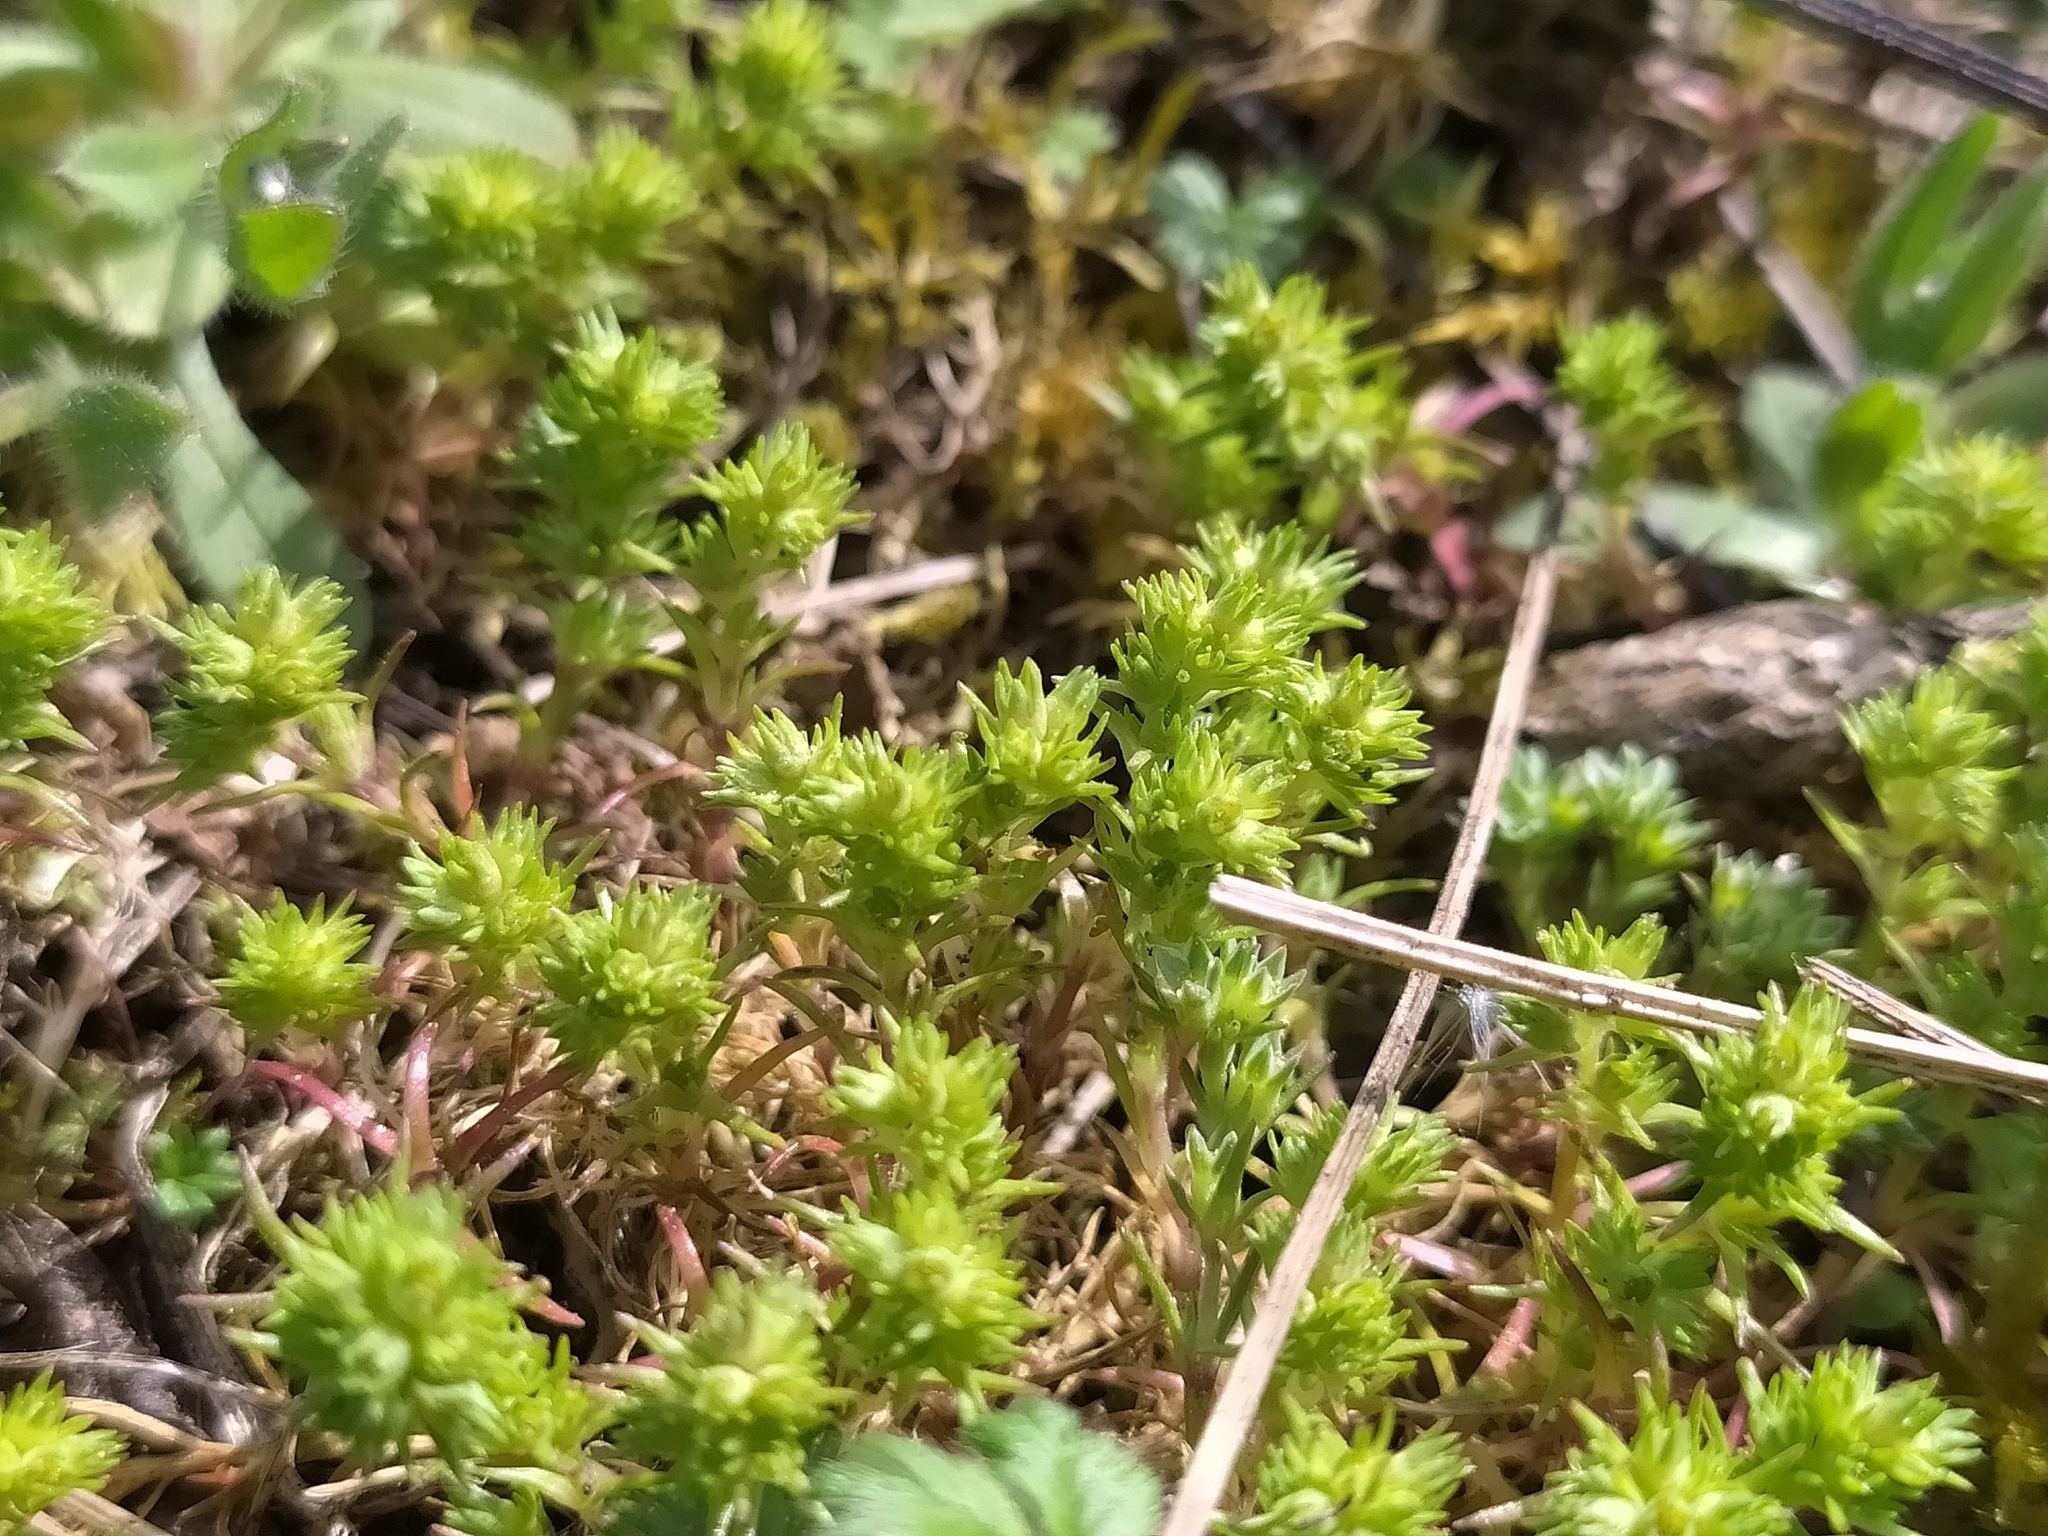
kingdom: Plantae
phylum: Tracheophyta
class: Magnoliopsida
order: Caryophyllales
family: Caryophyllaceae
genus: Scleranthus
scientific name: Scleranthus verticillatus
